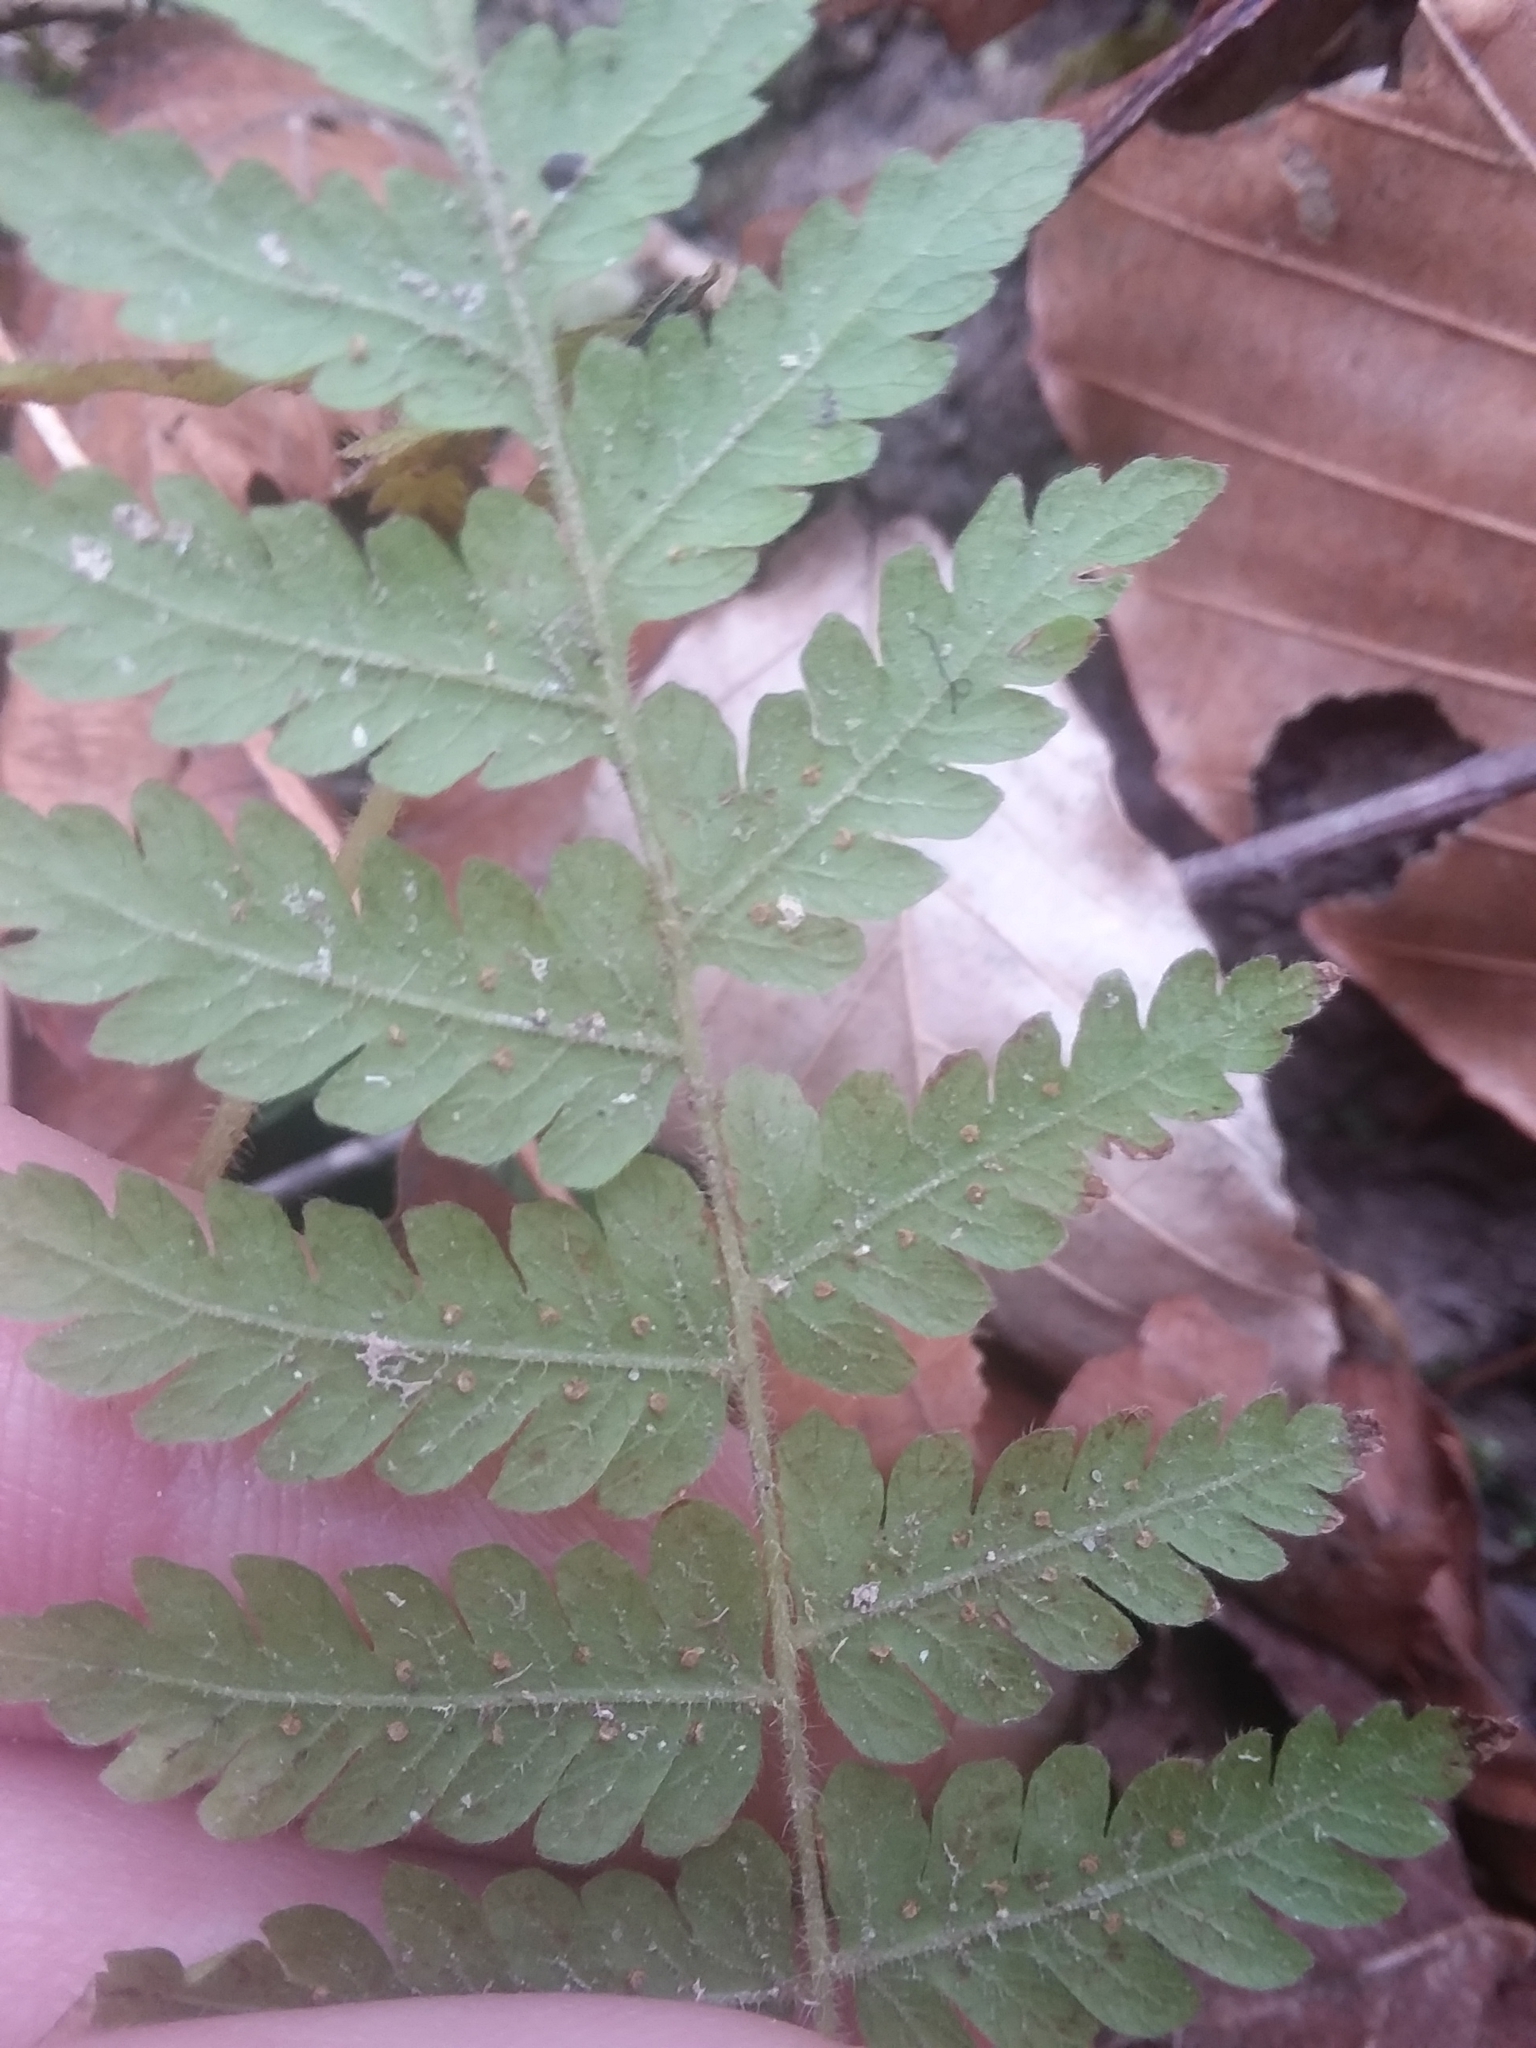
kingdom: Plantae
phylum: Tracheophyta
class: Polypodiopsida
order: Polypodiales
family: Thelypteridaceae
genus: Pelazoneuron
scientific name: Pelazoneuron kunthii
